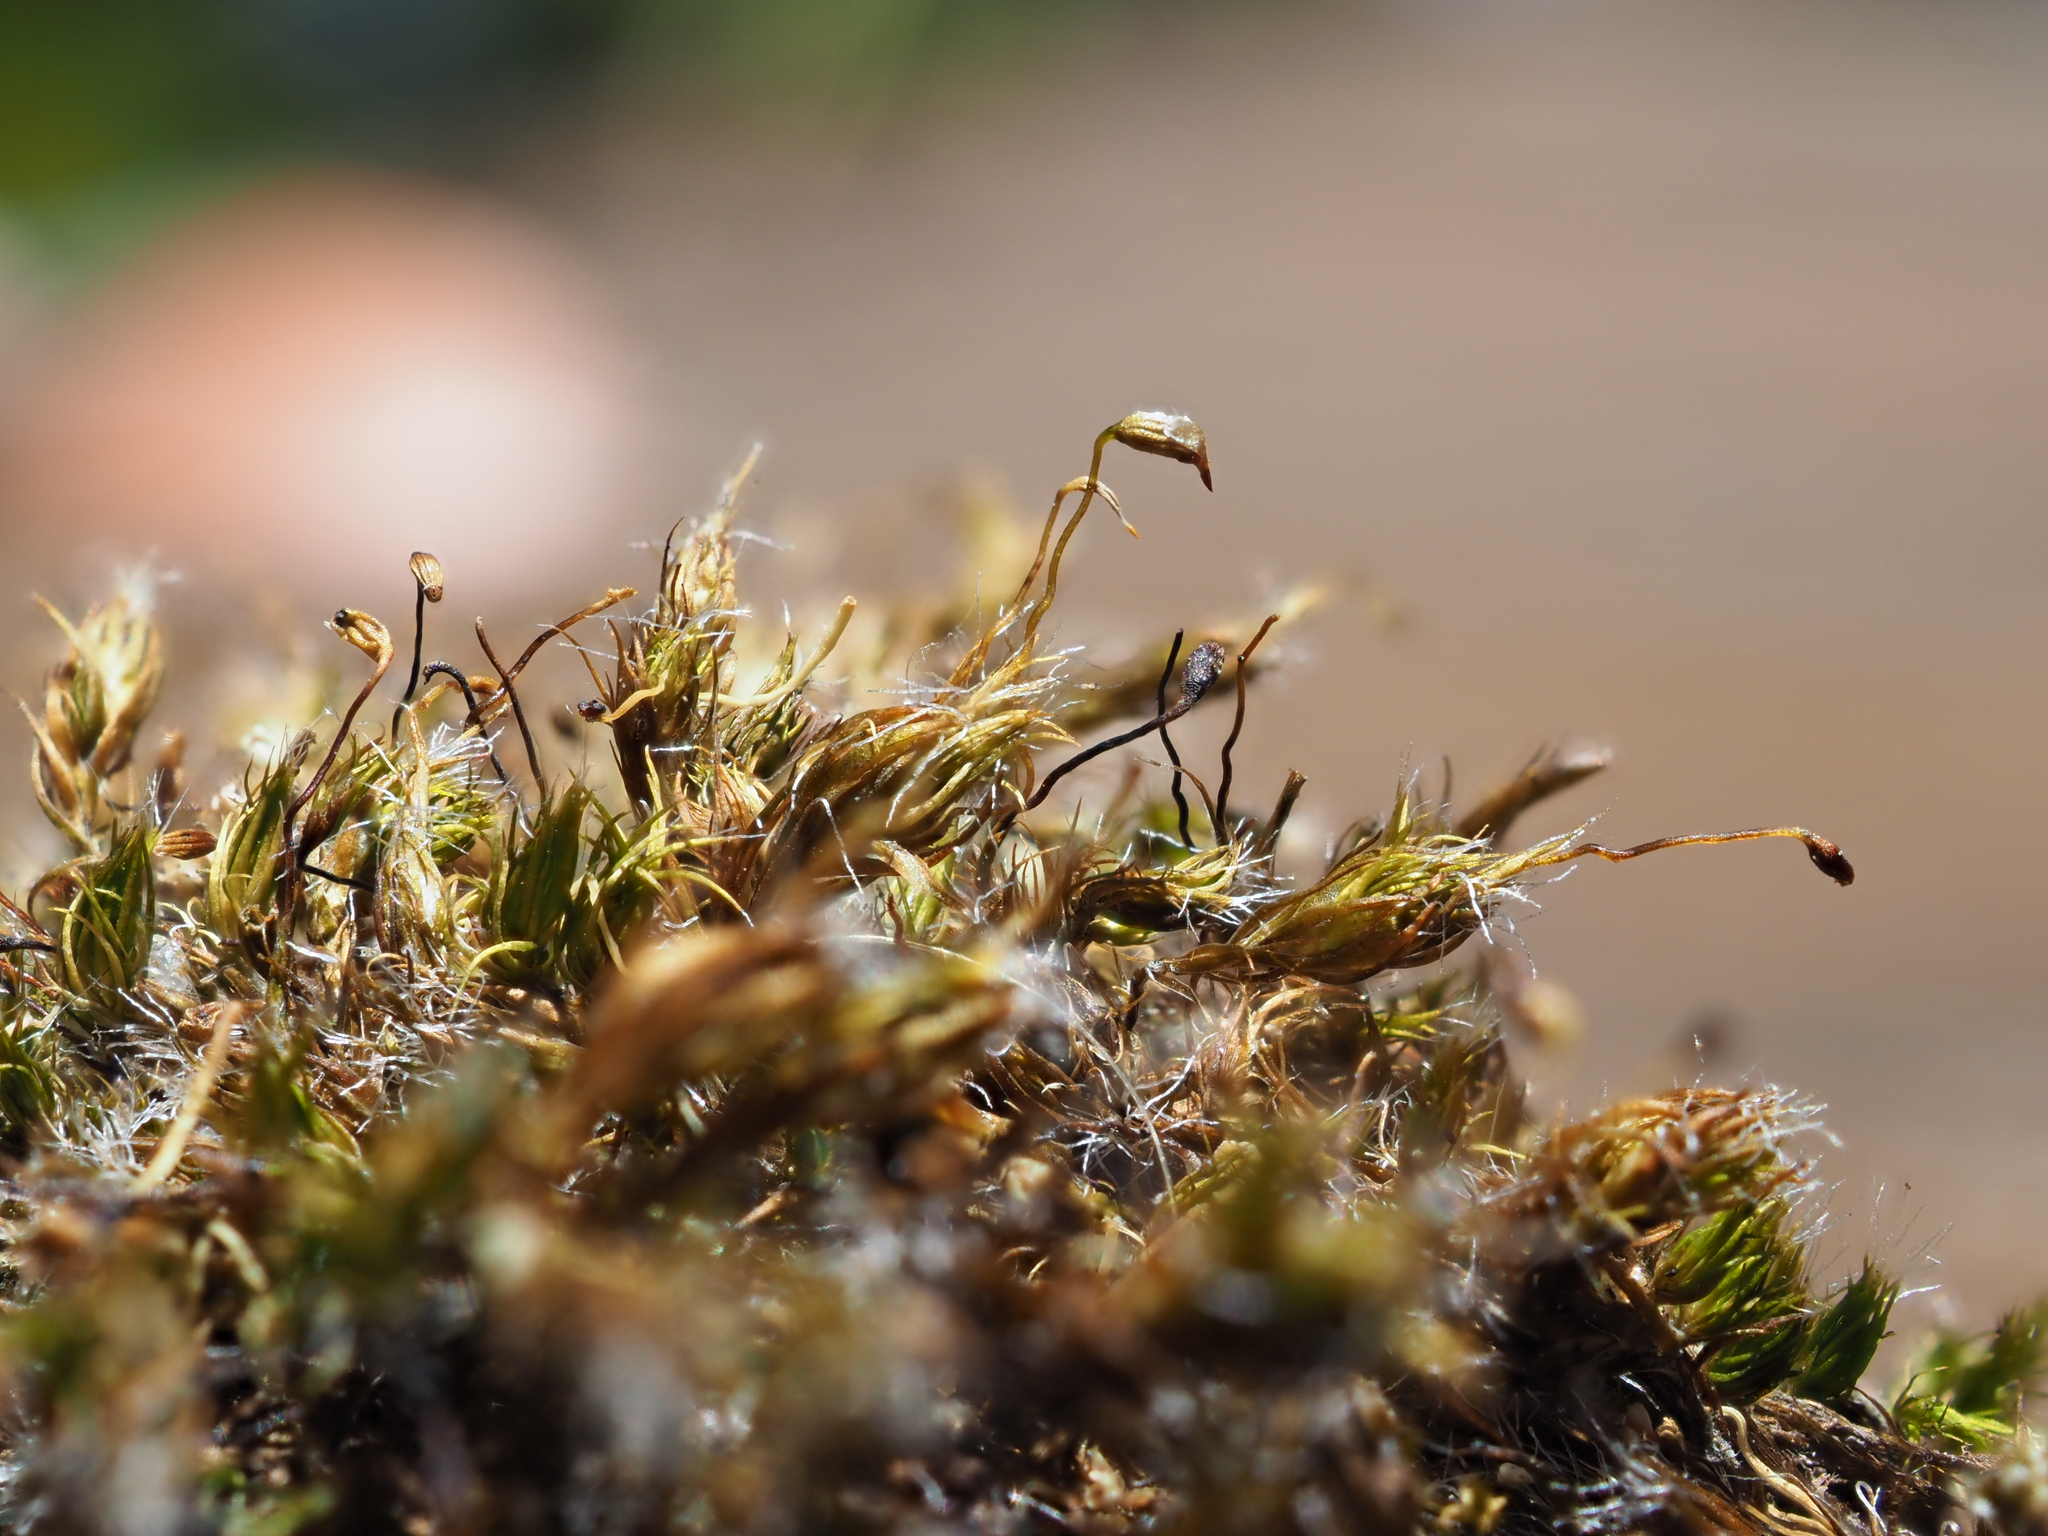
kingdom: Plantae
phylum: Bryophyta
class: Bryopsida
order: Dicranales
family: Leucobryaceae
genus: Campylopus
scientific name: Campylopus introflexus
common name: Heath star moss
